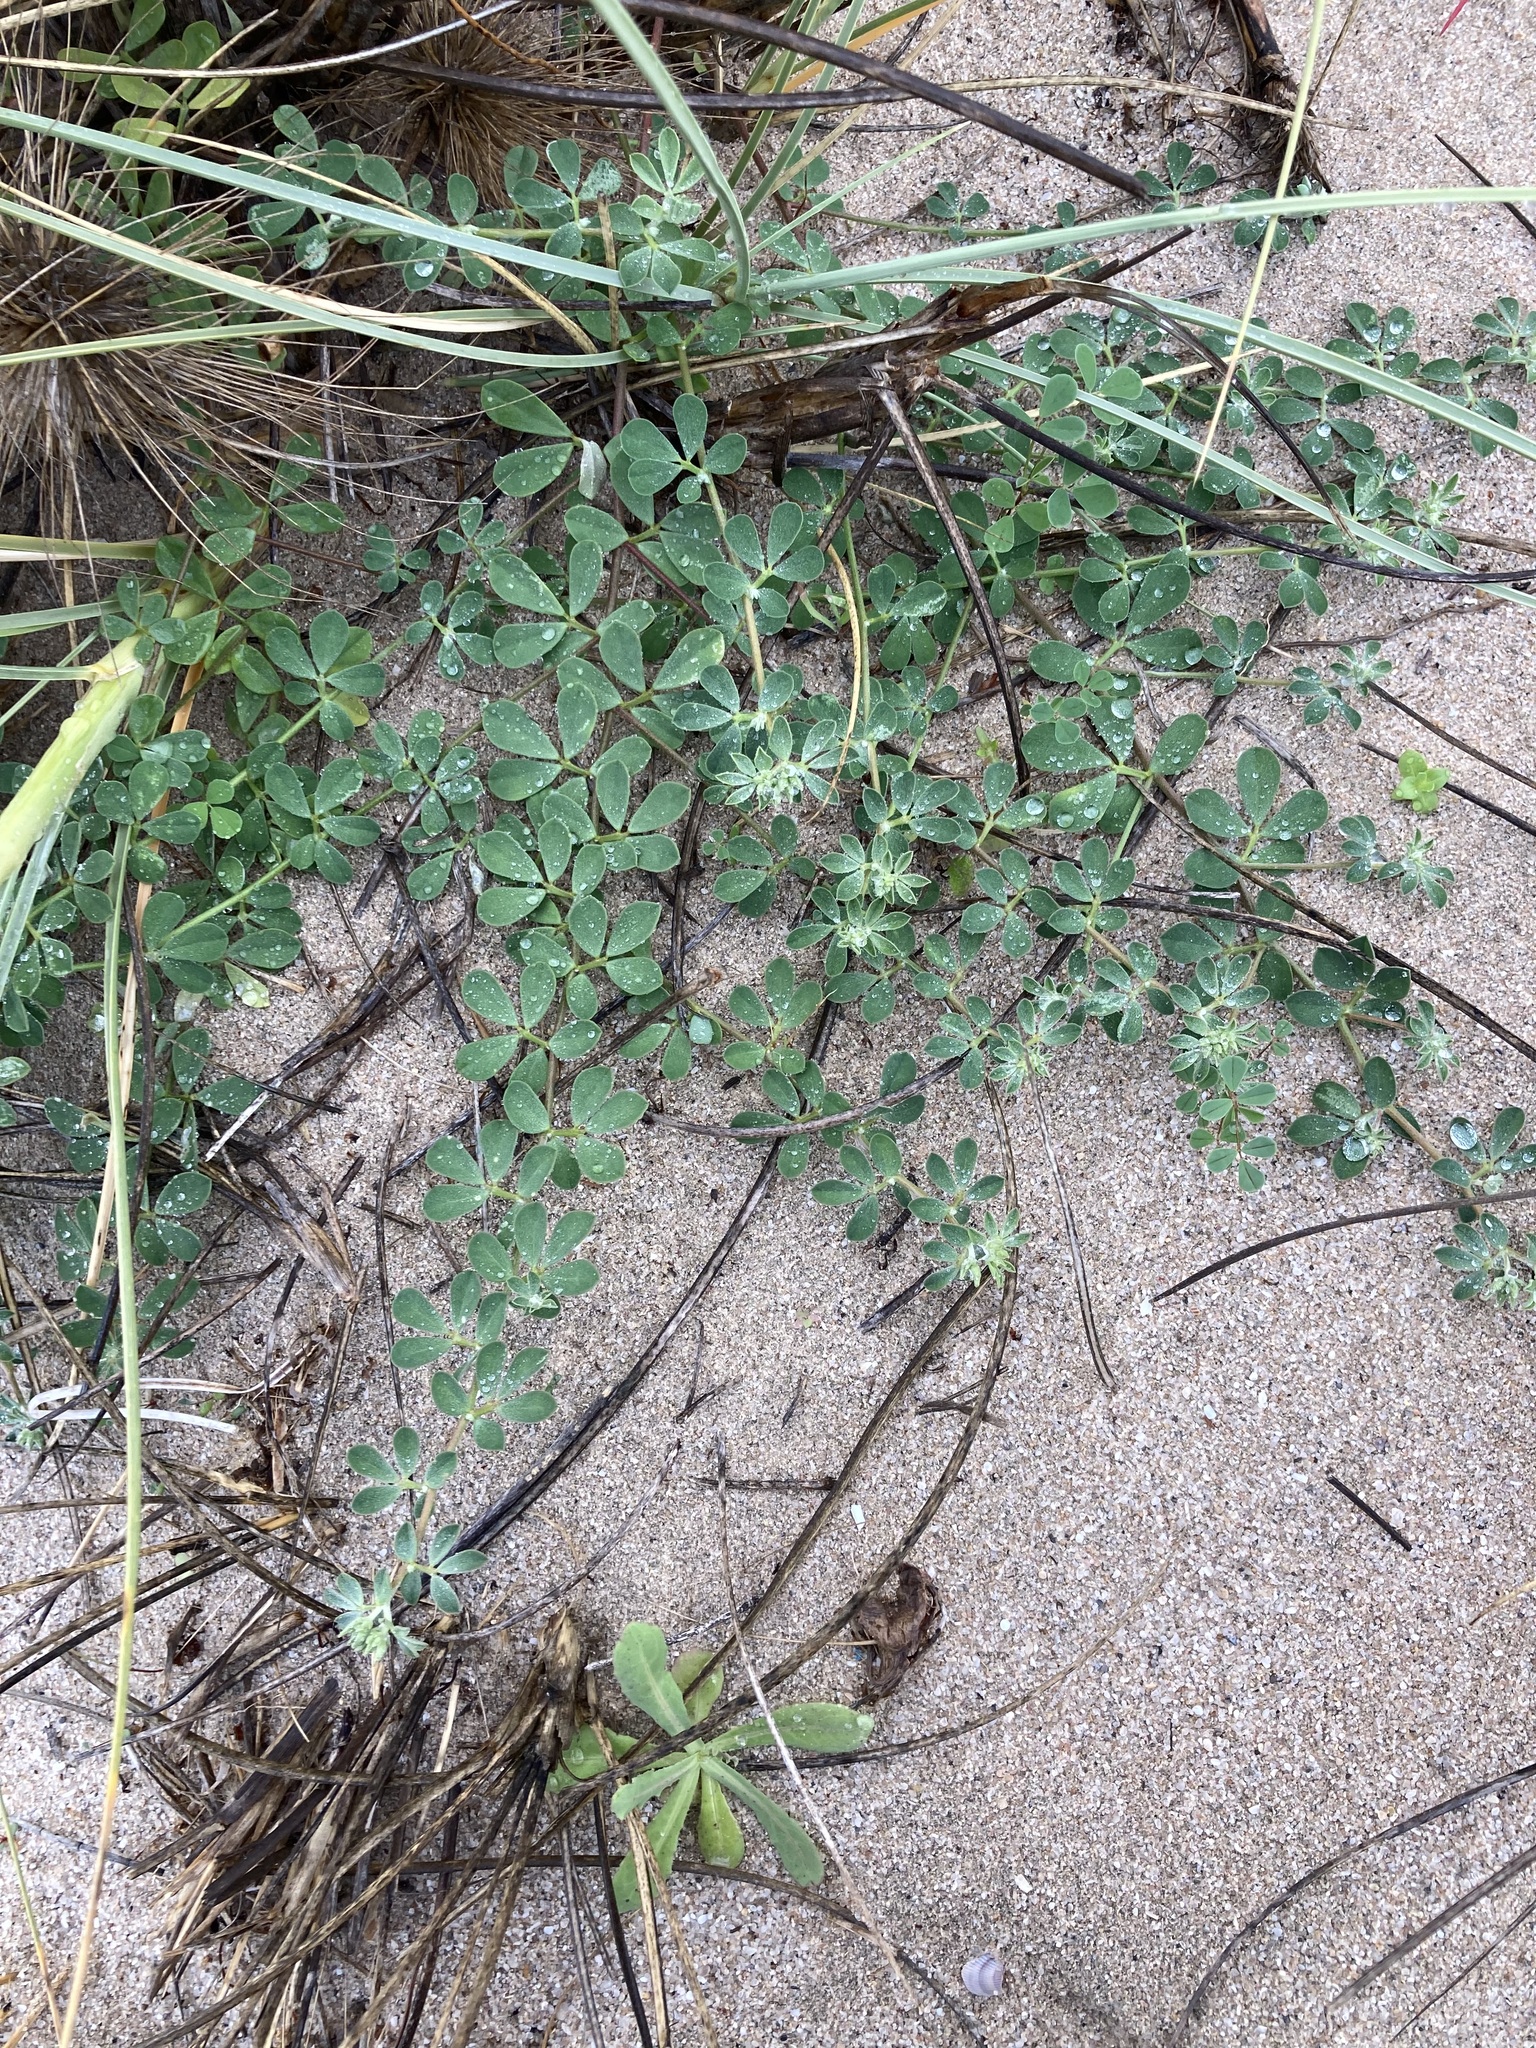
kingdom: Plantae
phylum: Tracheophyta
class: Magnoliopsida
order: Fabales
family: Fabaceae
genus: Lotus
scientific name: Lotus australis
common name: Australian trefoil
